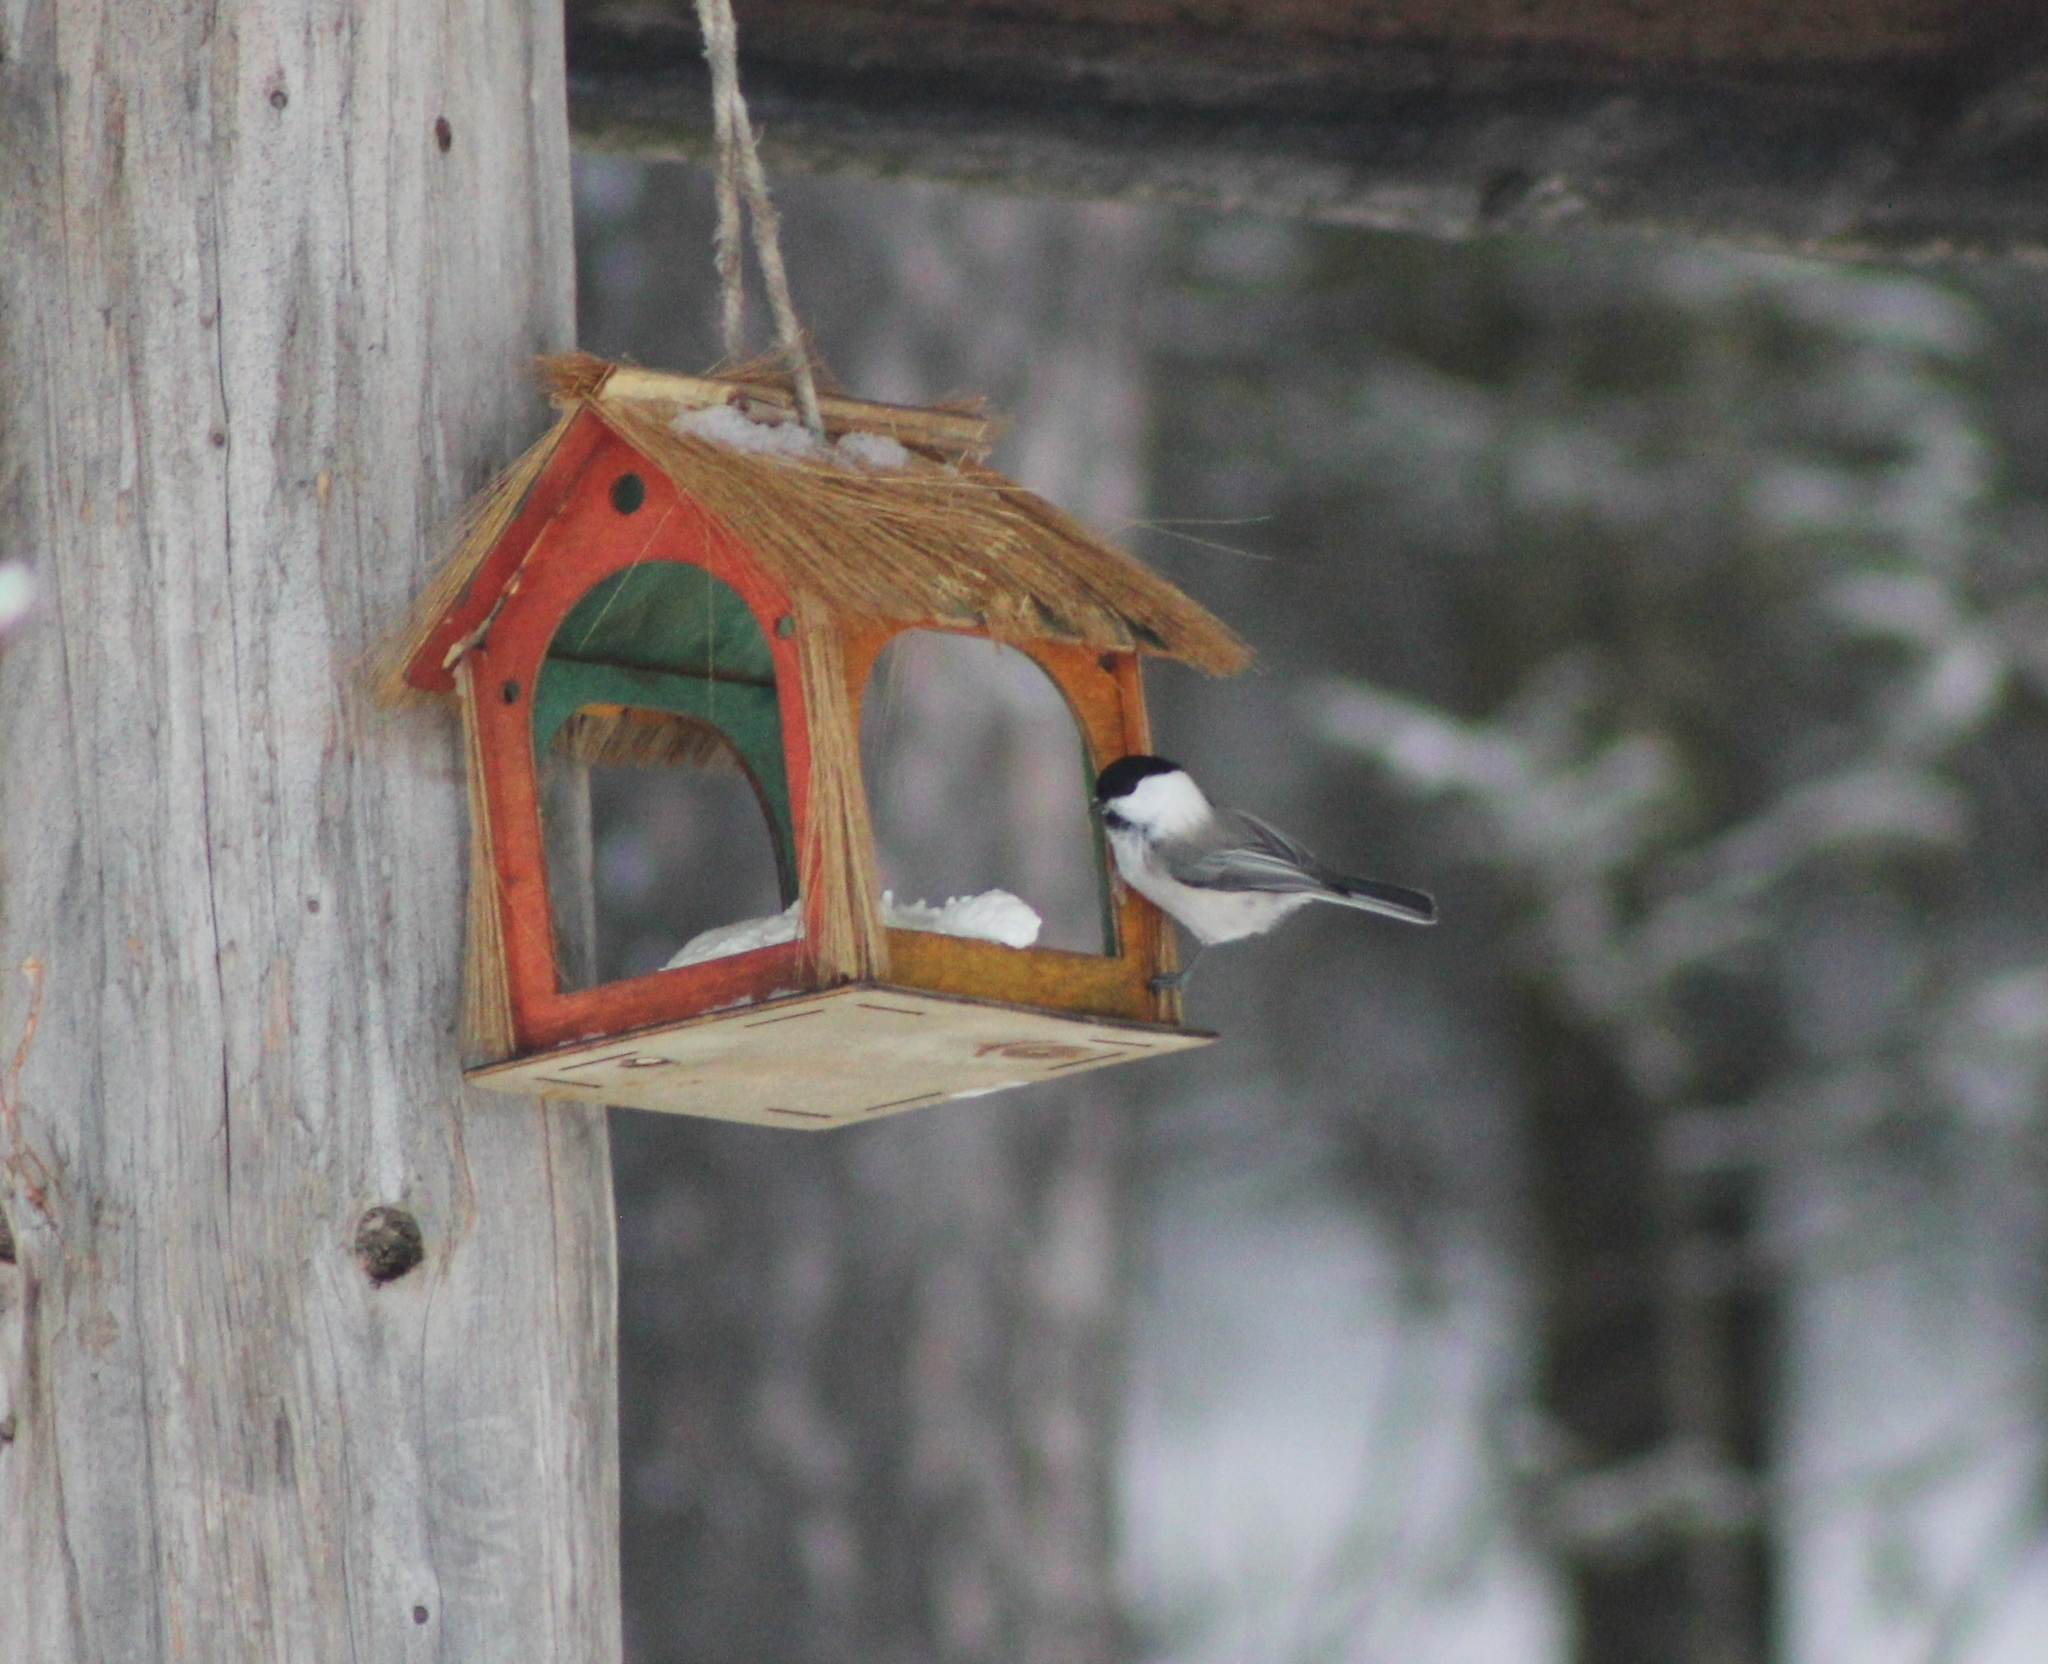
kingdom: Animalia
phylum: Chordata
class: Aves
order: Passeriformes
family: Paridae
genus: Poecile
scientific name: Poecile montanus
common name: Willow tit
